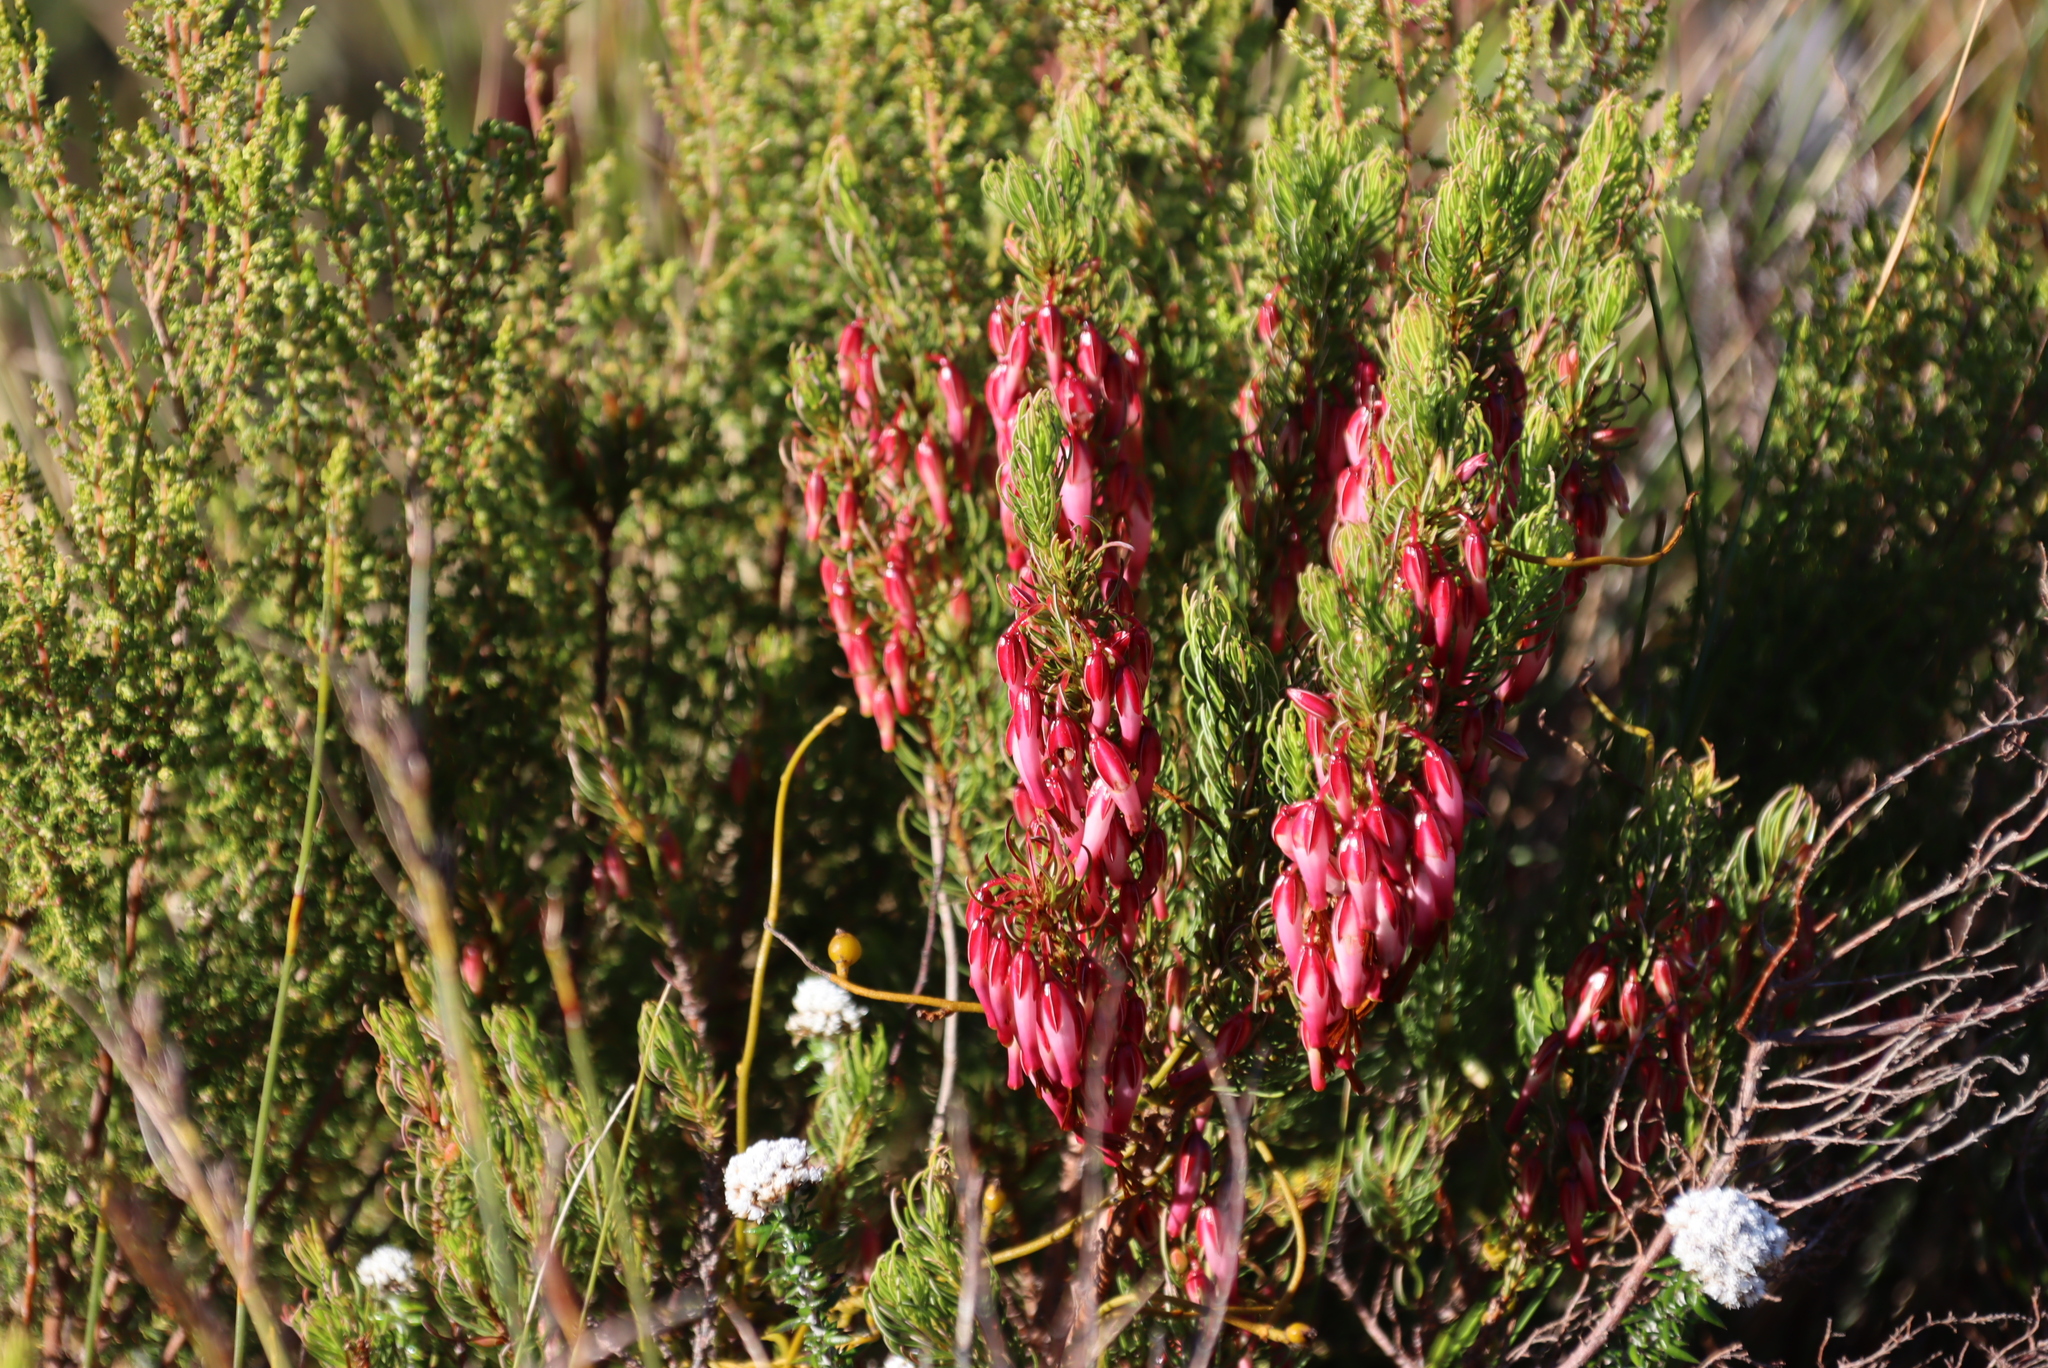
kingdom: Plantae
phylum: Tracheophyta
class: Magnoliopsida
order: Ericales
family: Ericaceae
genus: Erica
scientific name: Erica plukenetii
